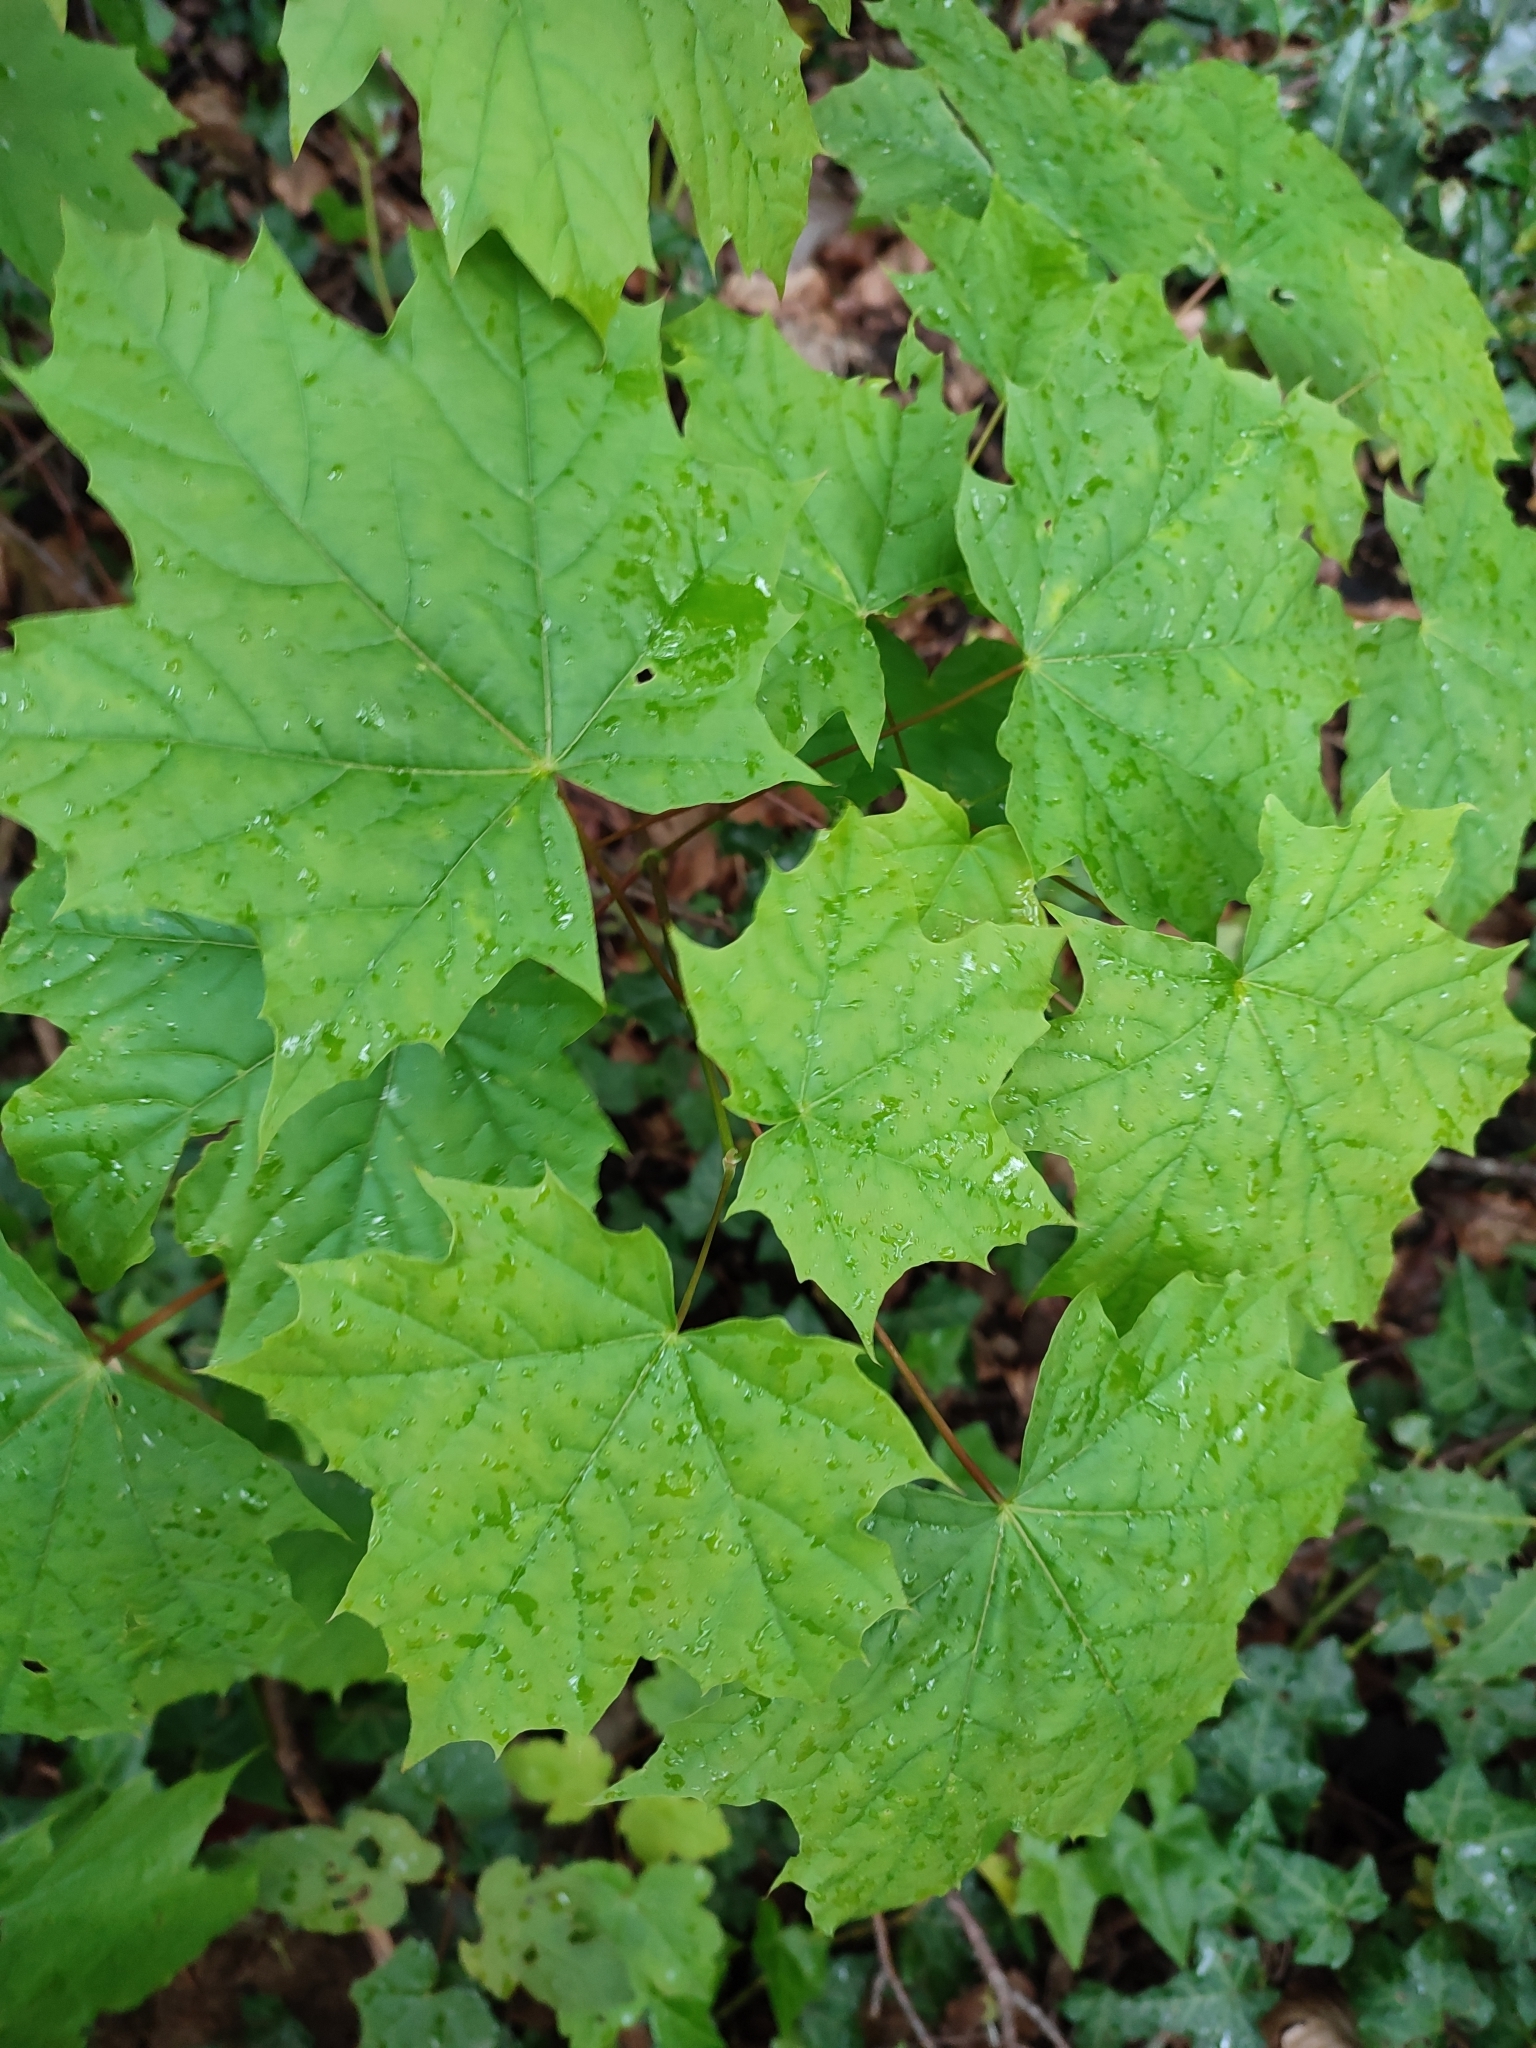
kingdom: Plantae
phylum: Tracheophyta
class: Magnoliopsida
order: Sapindales
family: Sapindaceae
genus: Acer
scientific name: Acer platanoides
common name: Norway maple
